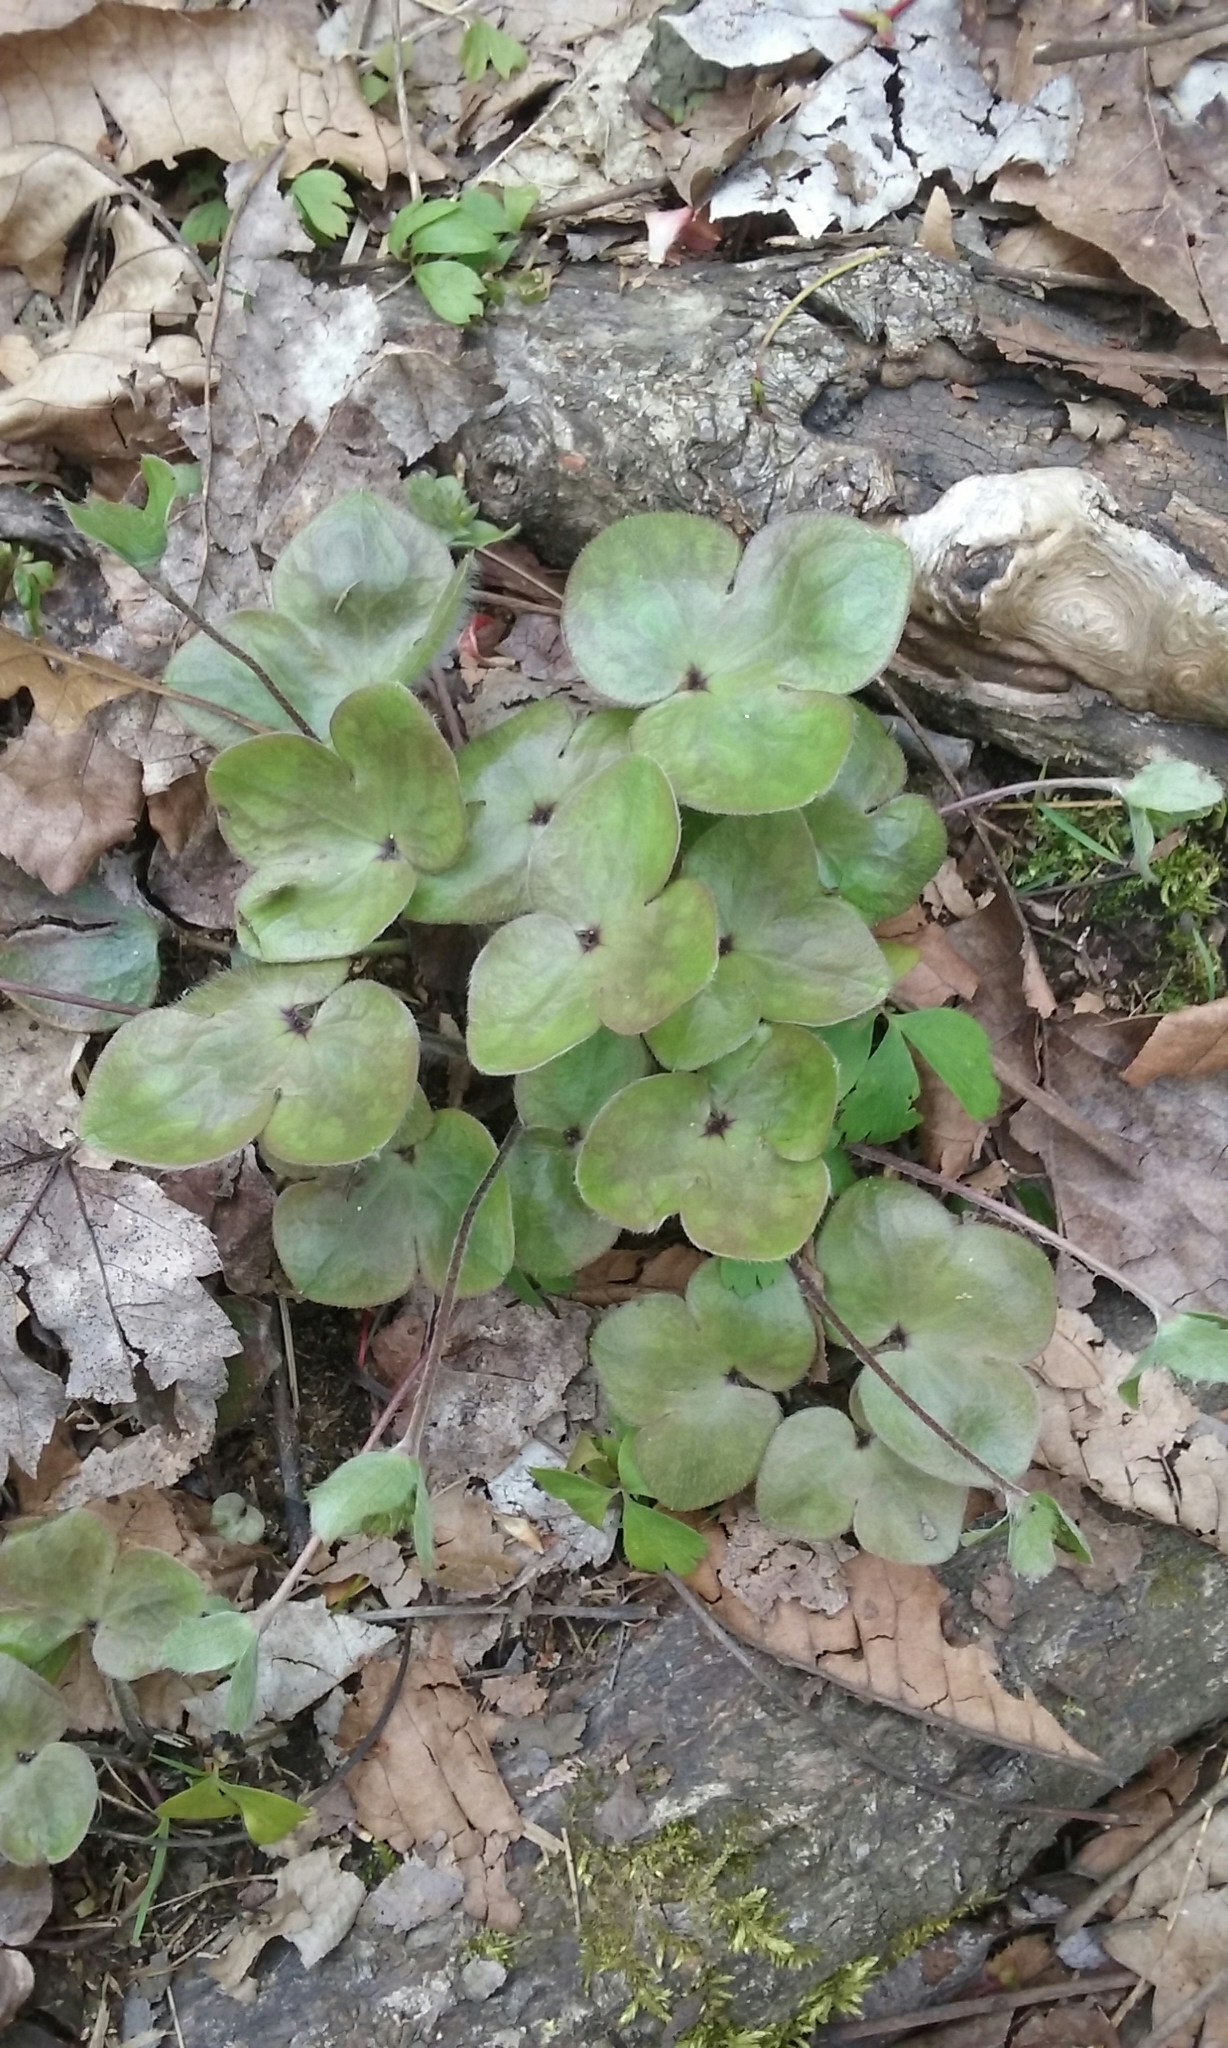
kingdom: Plantae
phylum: Tracheophyta
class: Magnoliopsida
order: Ranunculales
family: Ranunculaceae
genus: Hepatica
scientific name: Hepatica americana
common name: American hepatica
